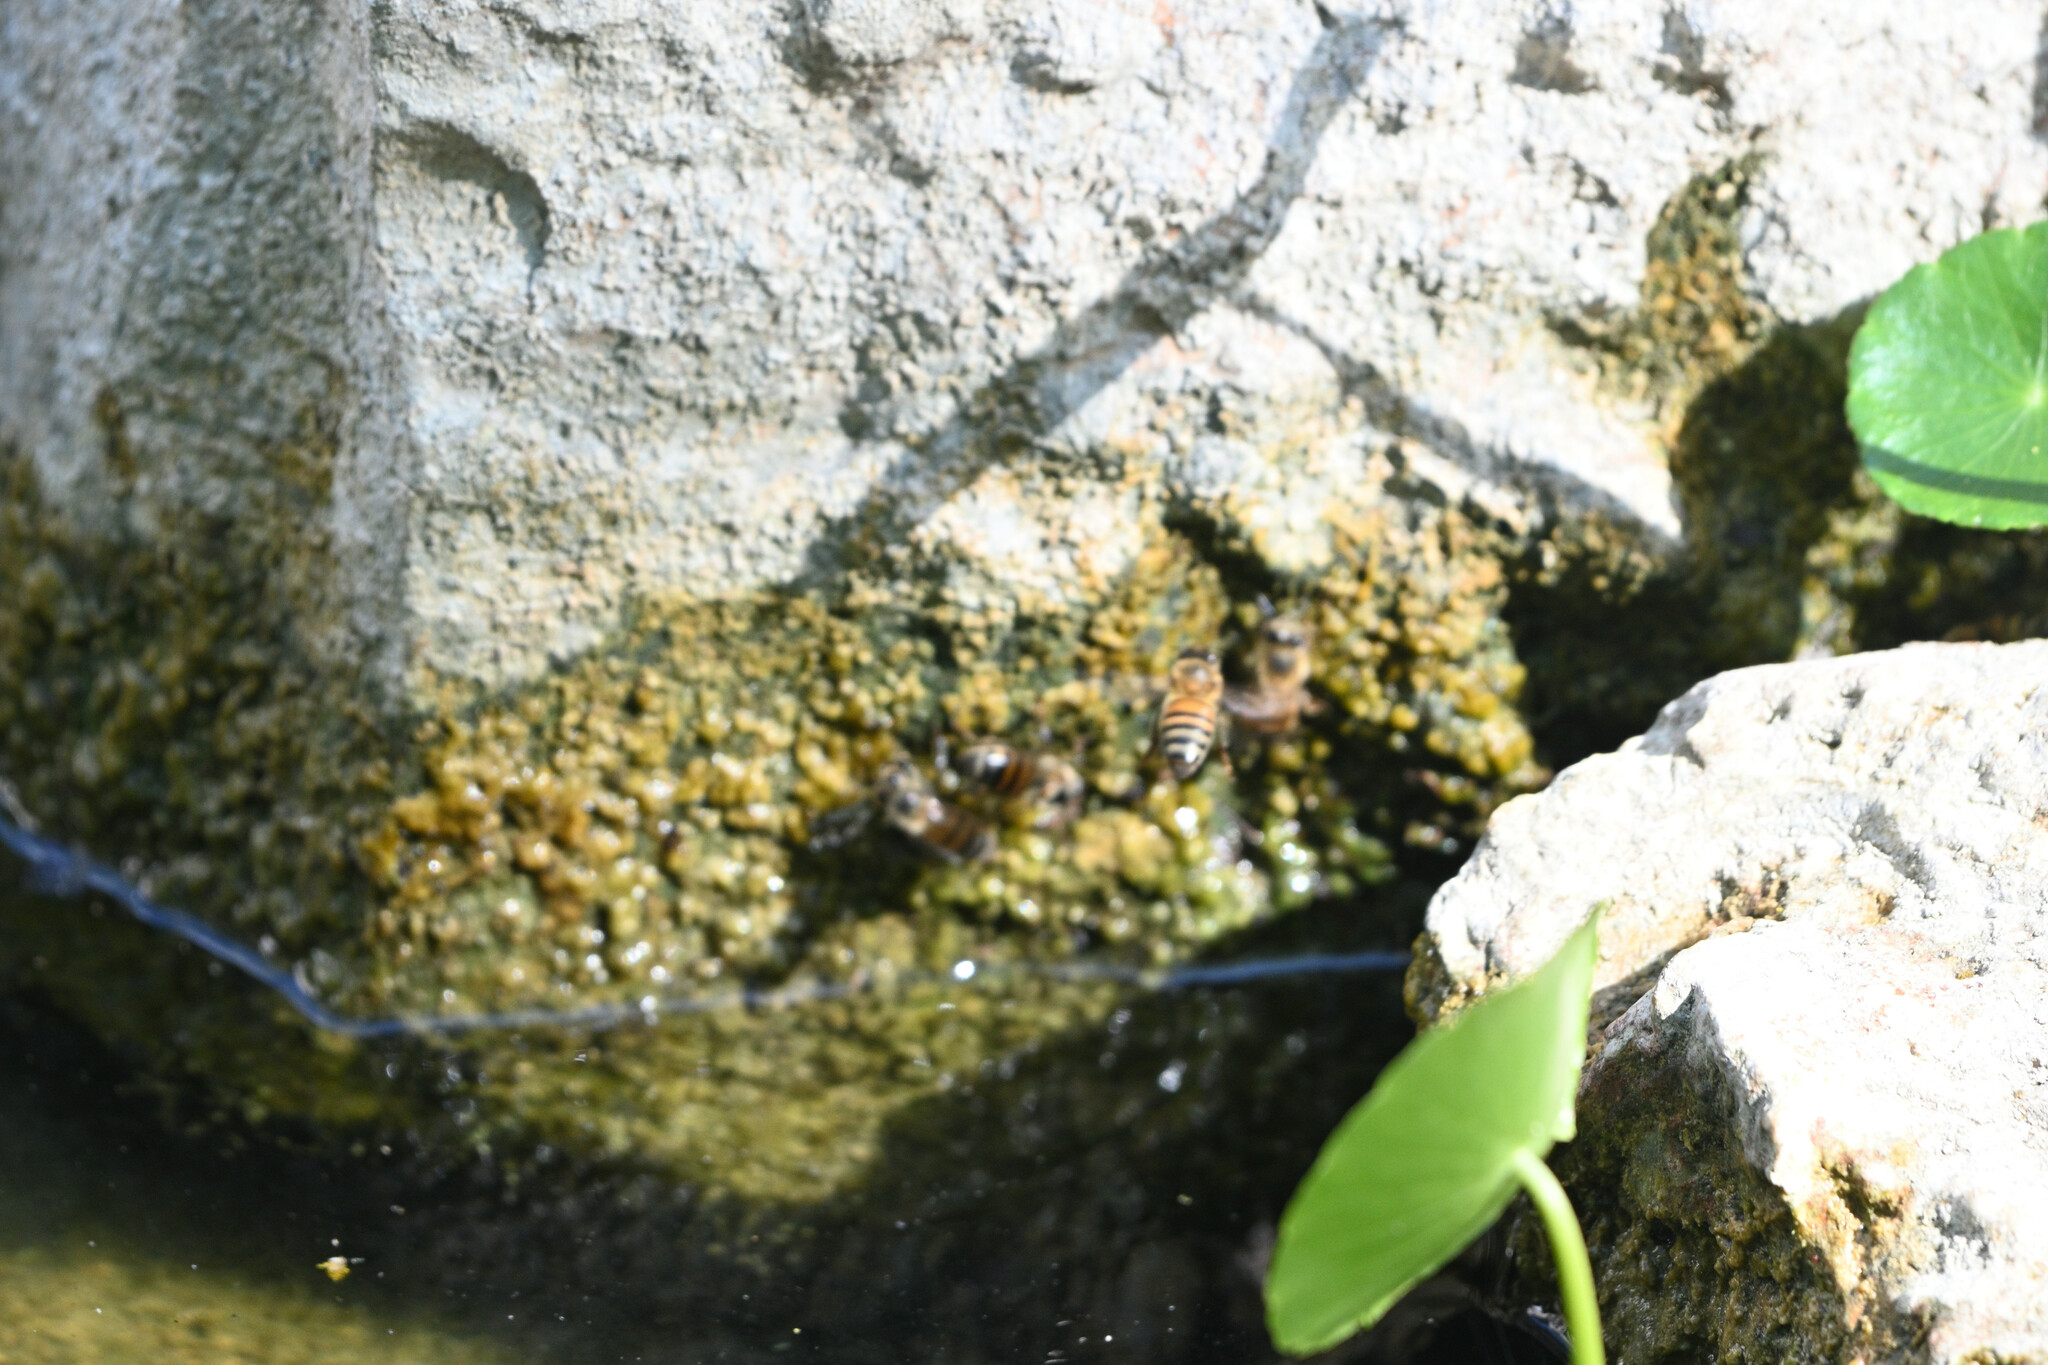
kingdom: Animalia
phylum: Arthropoda
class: Insecta
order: Hymenoptera
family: Apidae
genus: Apis
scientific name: Apis mellifera
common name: Honey bee
